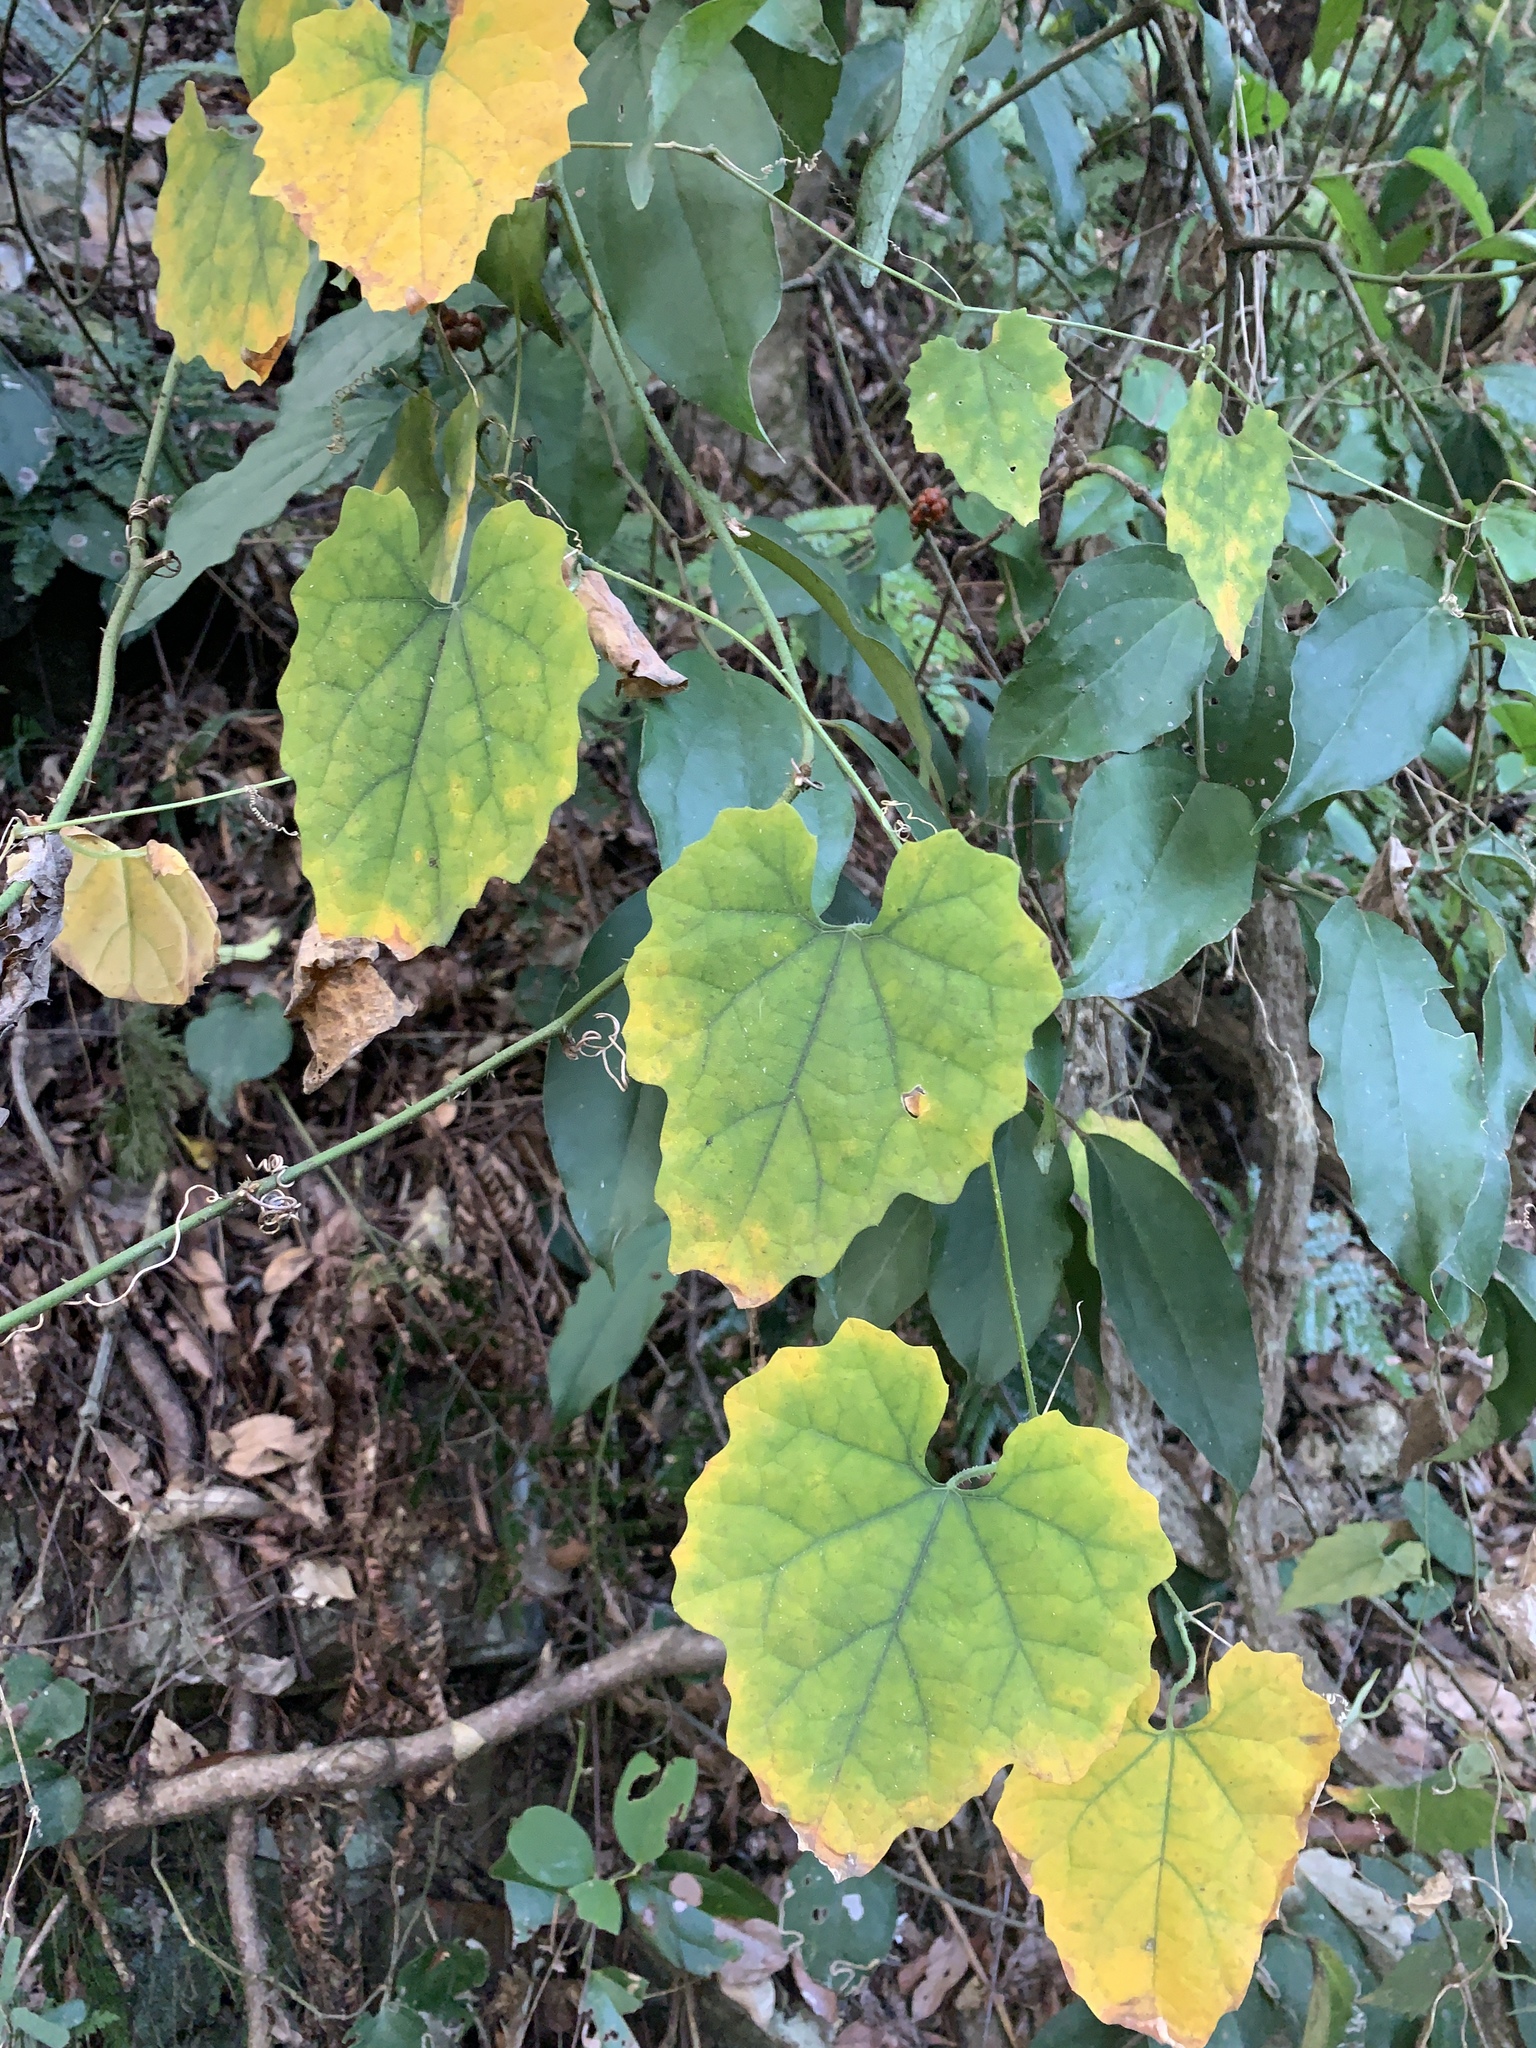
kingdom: Plantae
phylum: Tracheophyta
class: Magnoliopsida
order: Cucurbitales
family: Cucurbitaceae
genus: Trichosanthes
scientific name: Trichosanthes cucumeroides
